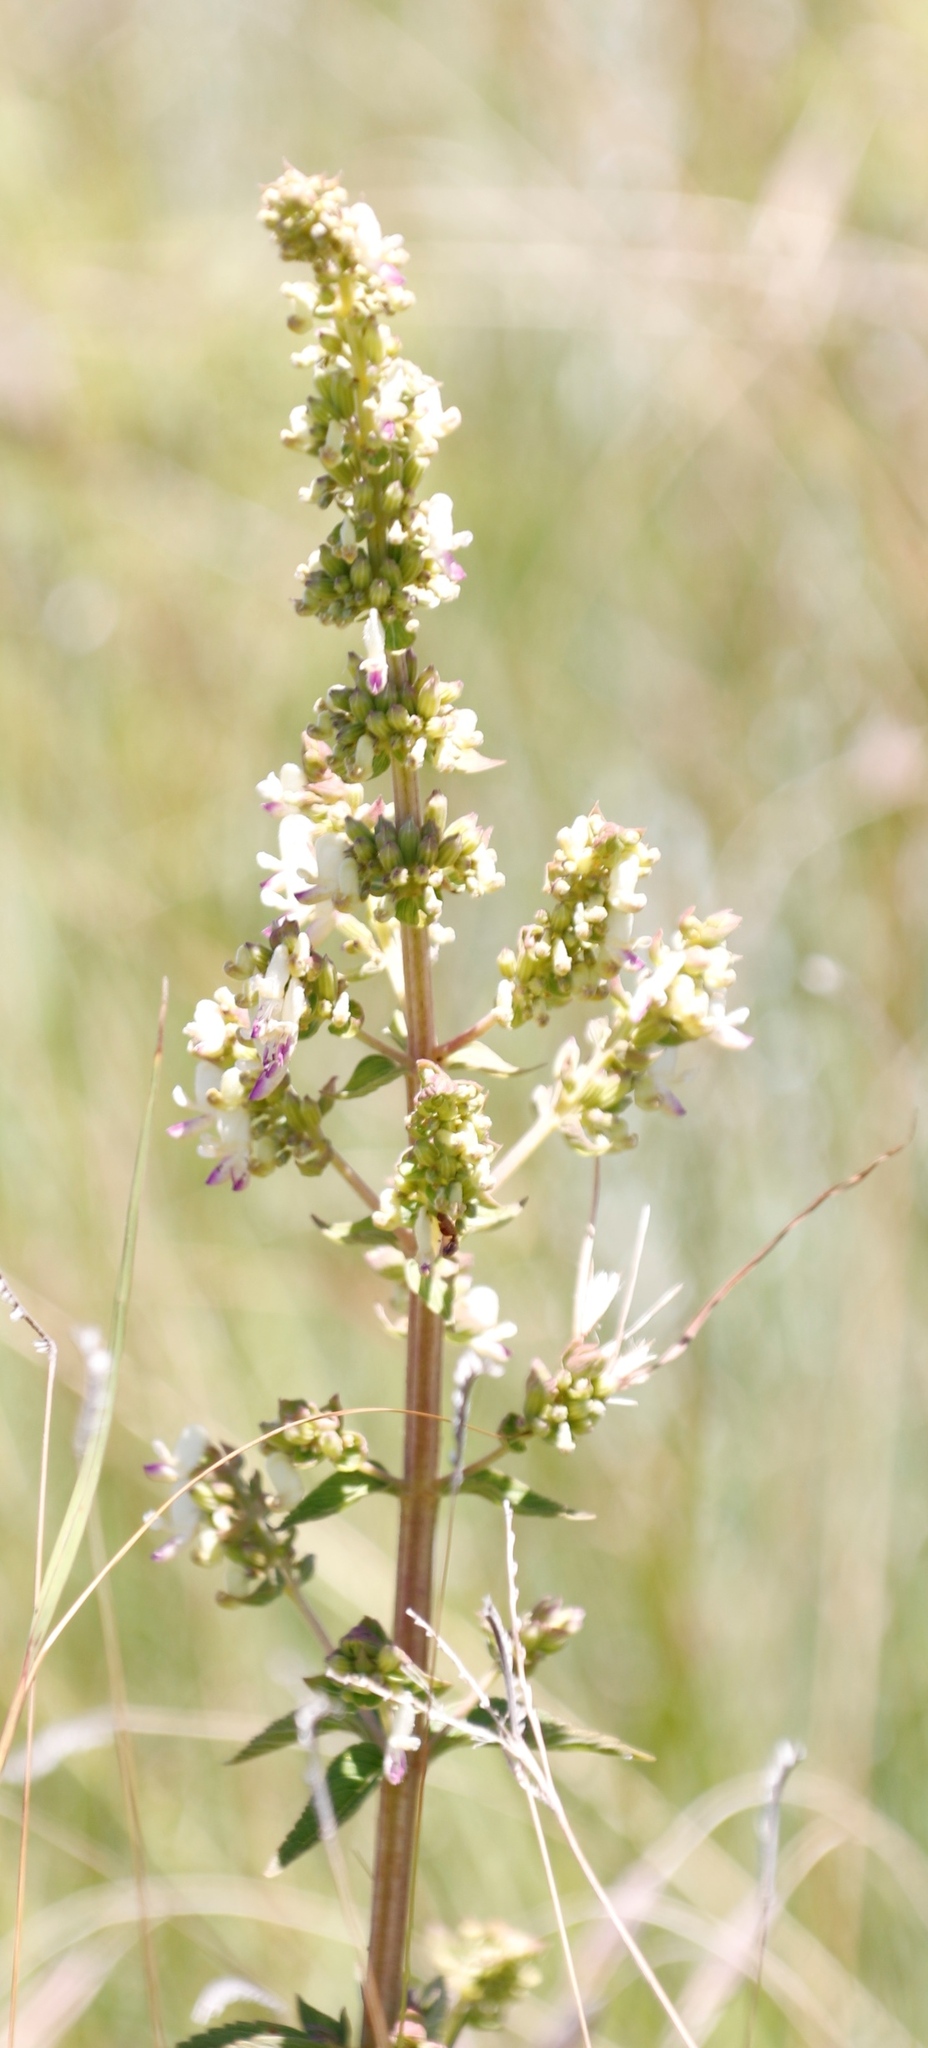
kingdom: Plantae
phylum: Tracheophyta
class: Magnoliopsida
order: Lamiales
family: Lamiaceae
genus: Coleus
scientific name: Coleus calycinus
